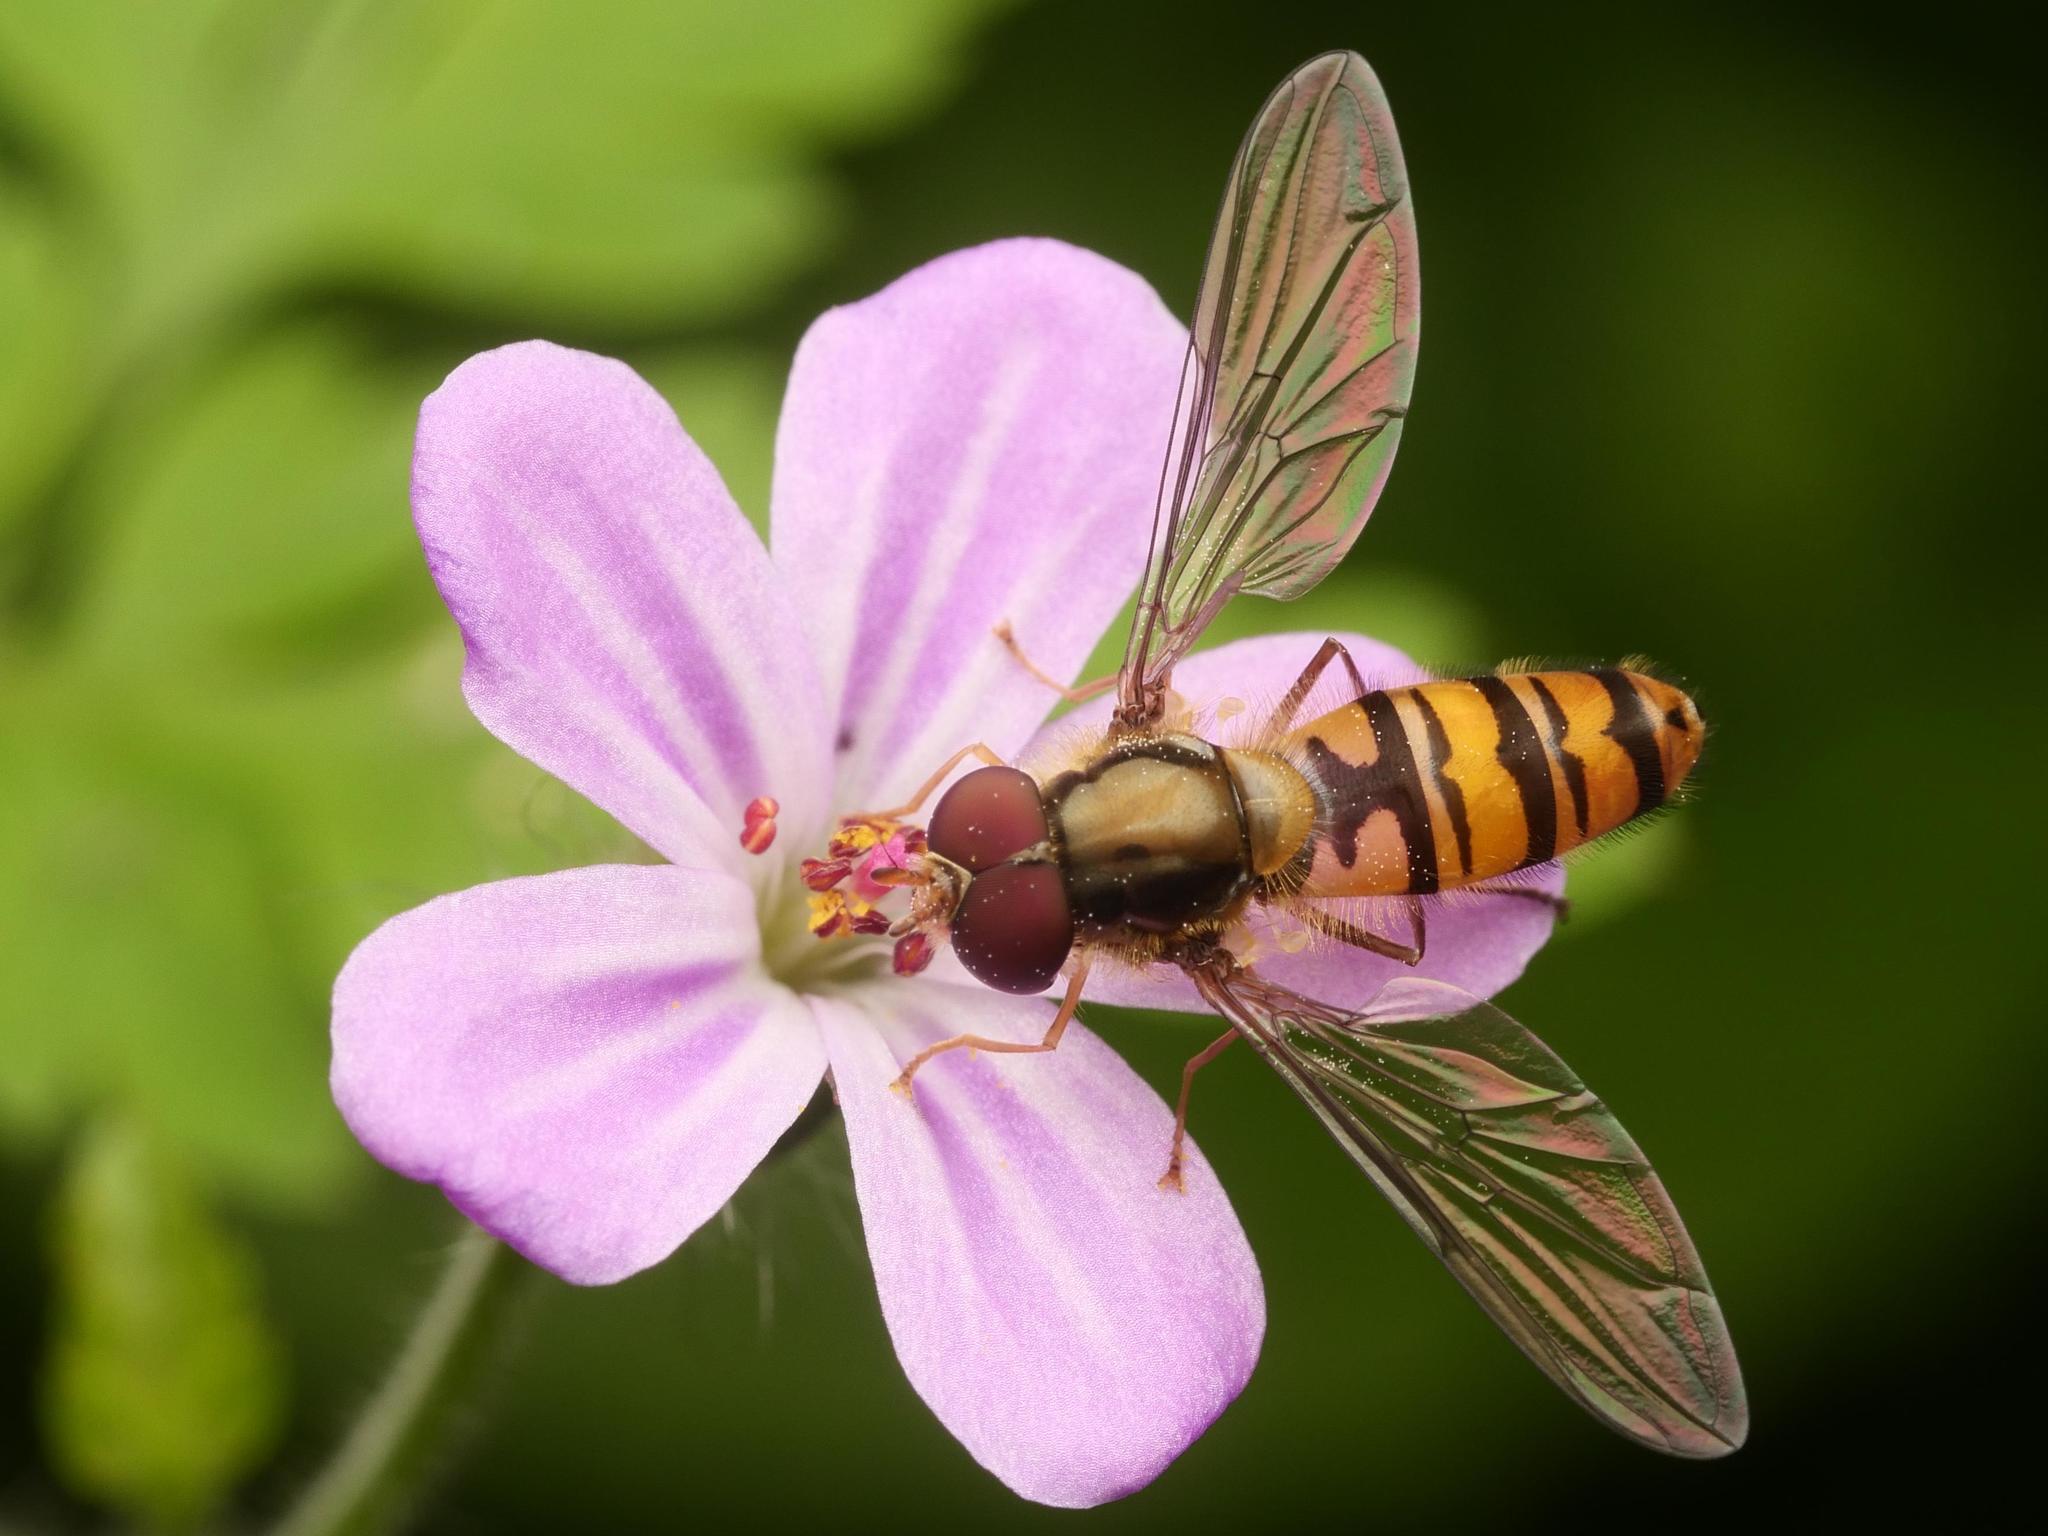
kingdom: Animalia
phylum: Arthropoda
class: Insecta
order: Diptera
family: Syrphidae
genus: Episyrphus
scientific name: Episyrphus balteatus
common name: Marmalade hoverfly
